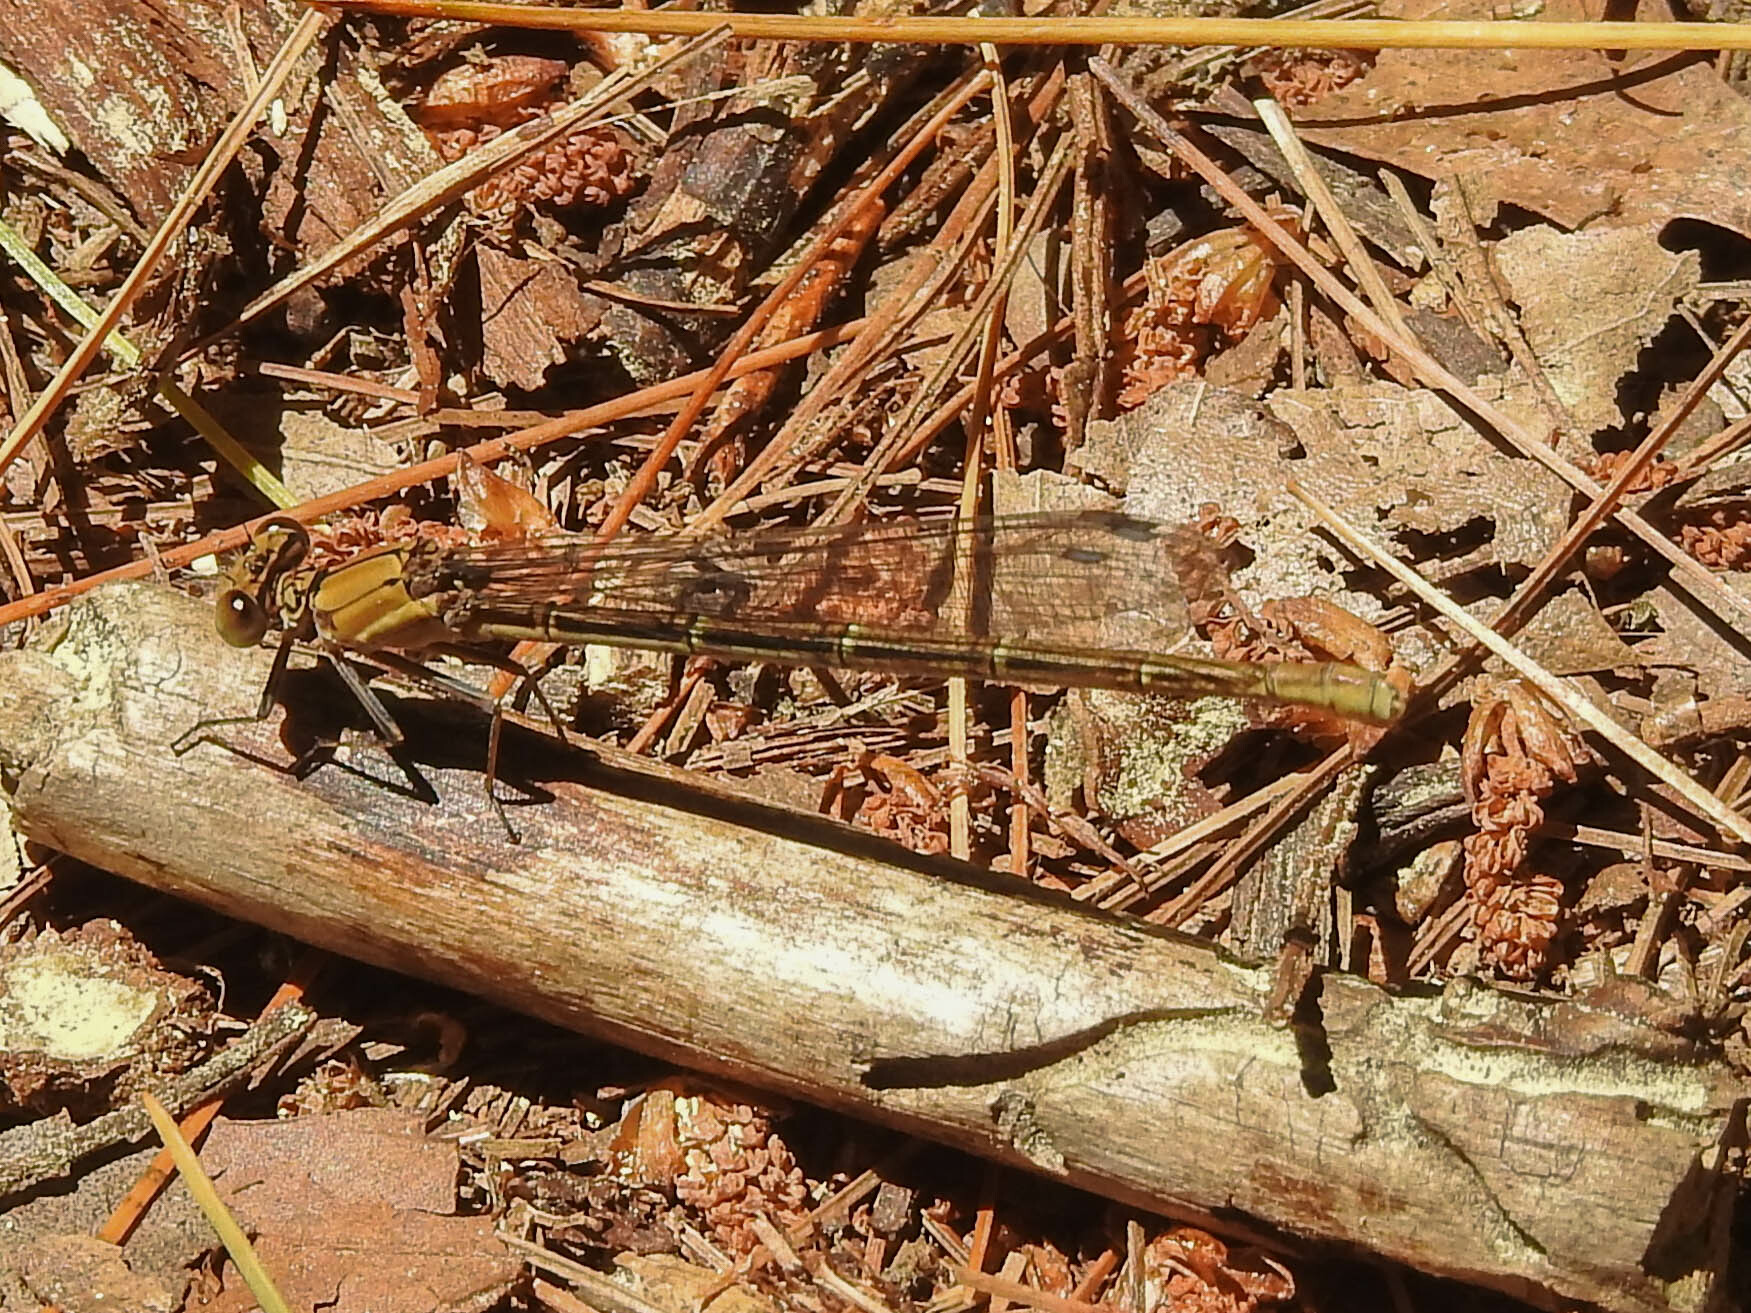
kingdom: Animalia
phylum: Arthropoda
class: Insecta
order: Odonata
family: Coenagrionidae
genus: Argia
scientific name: Argia moesta
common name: Powdered dancer
